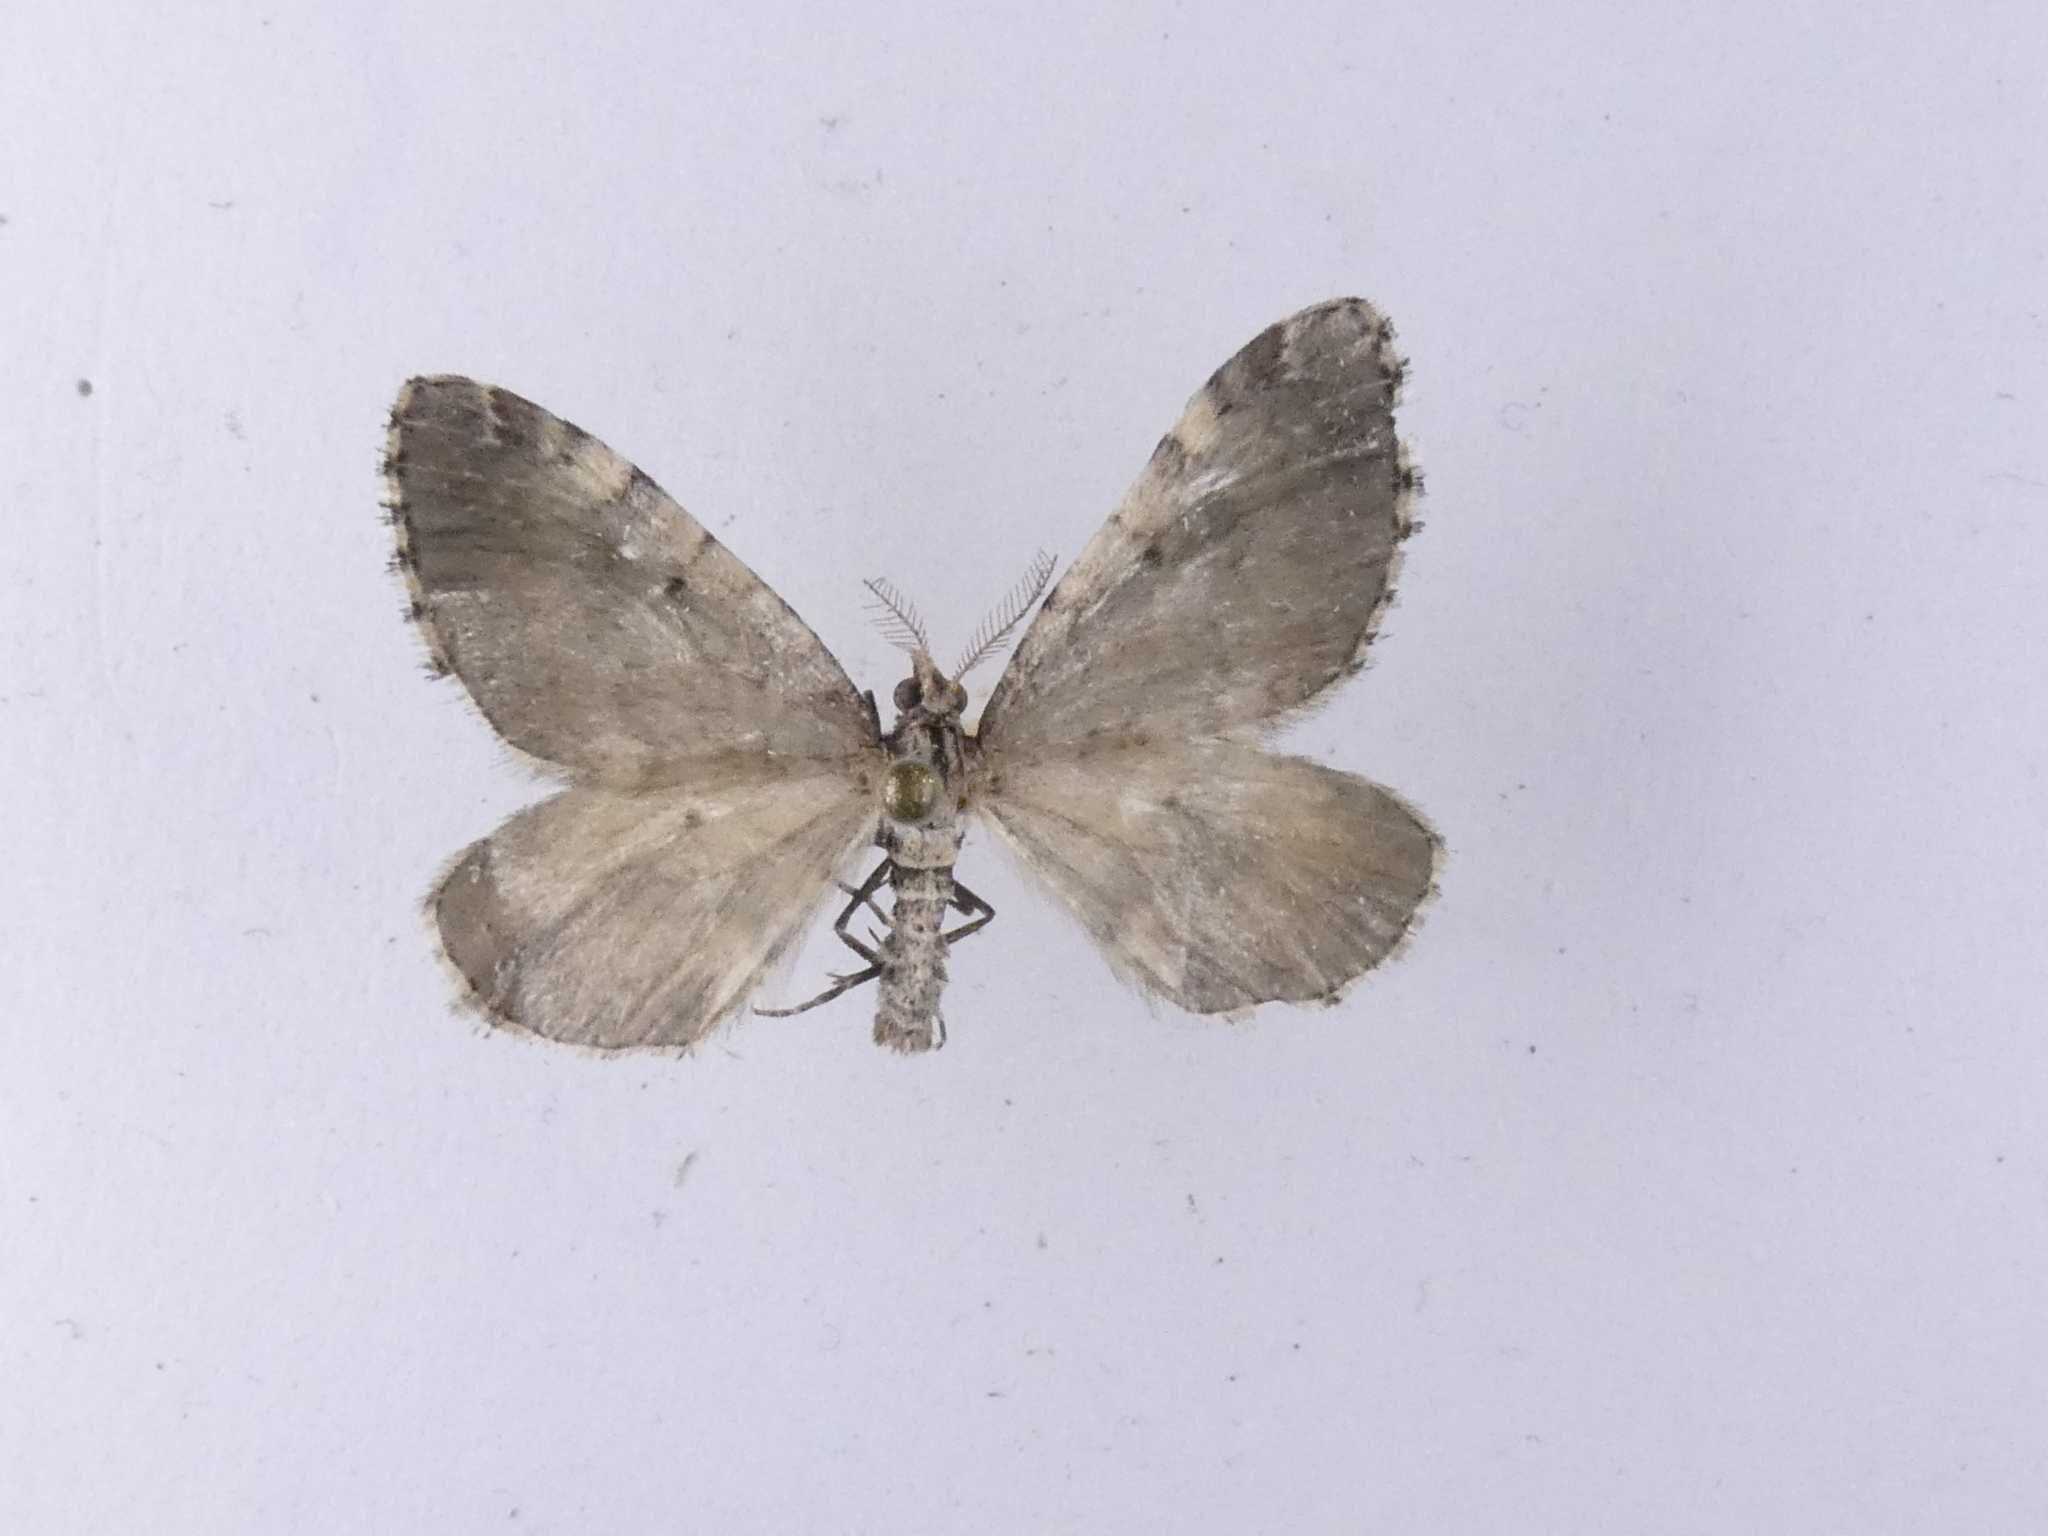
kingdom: Animalia
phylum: Arthropoda
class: Insecta
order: Lepidoptera
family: Geometridae
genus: Asaphodes
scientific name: Asaphodes aegrota
